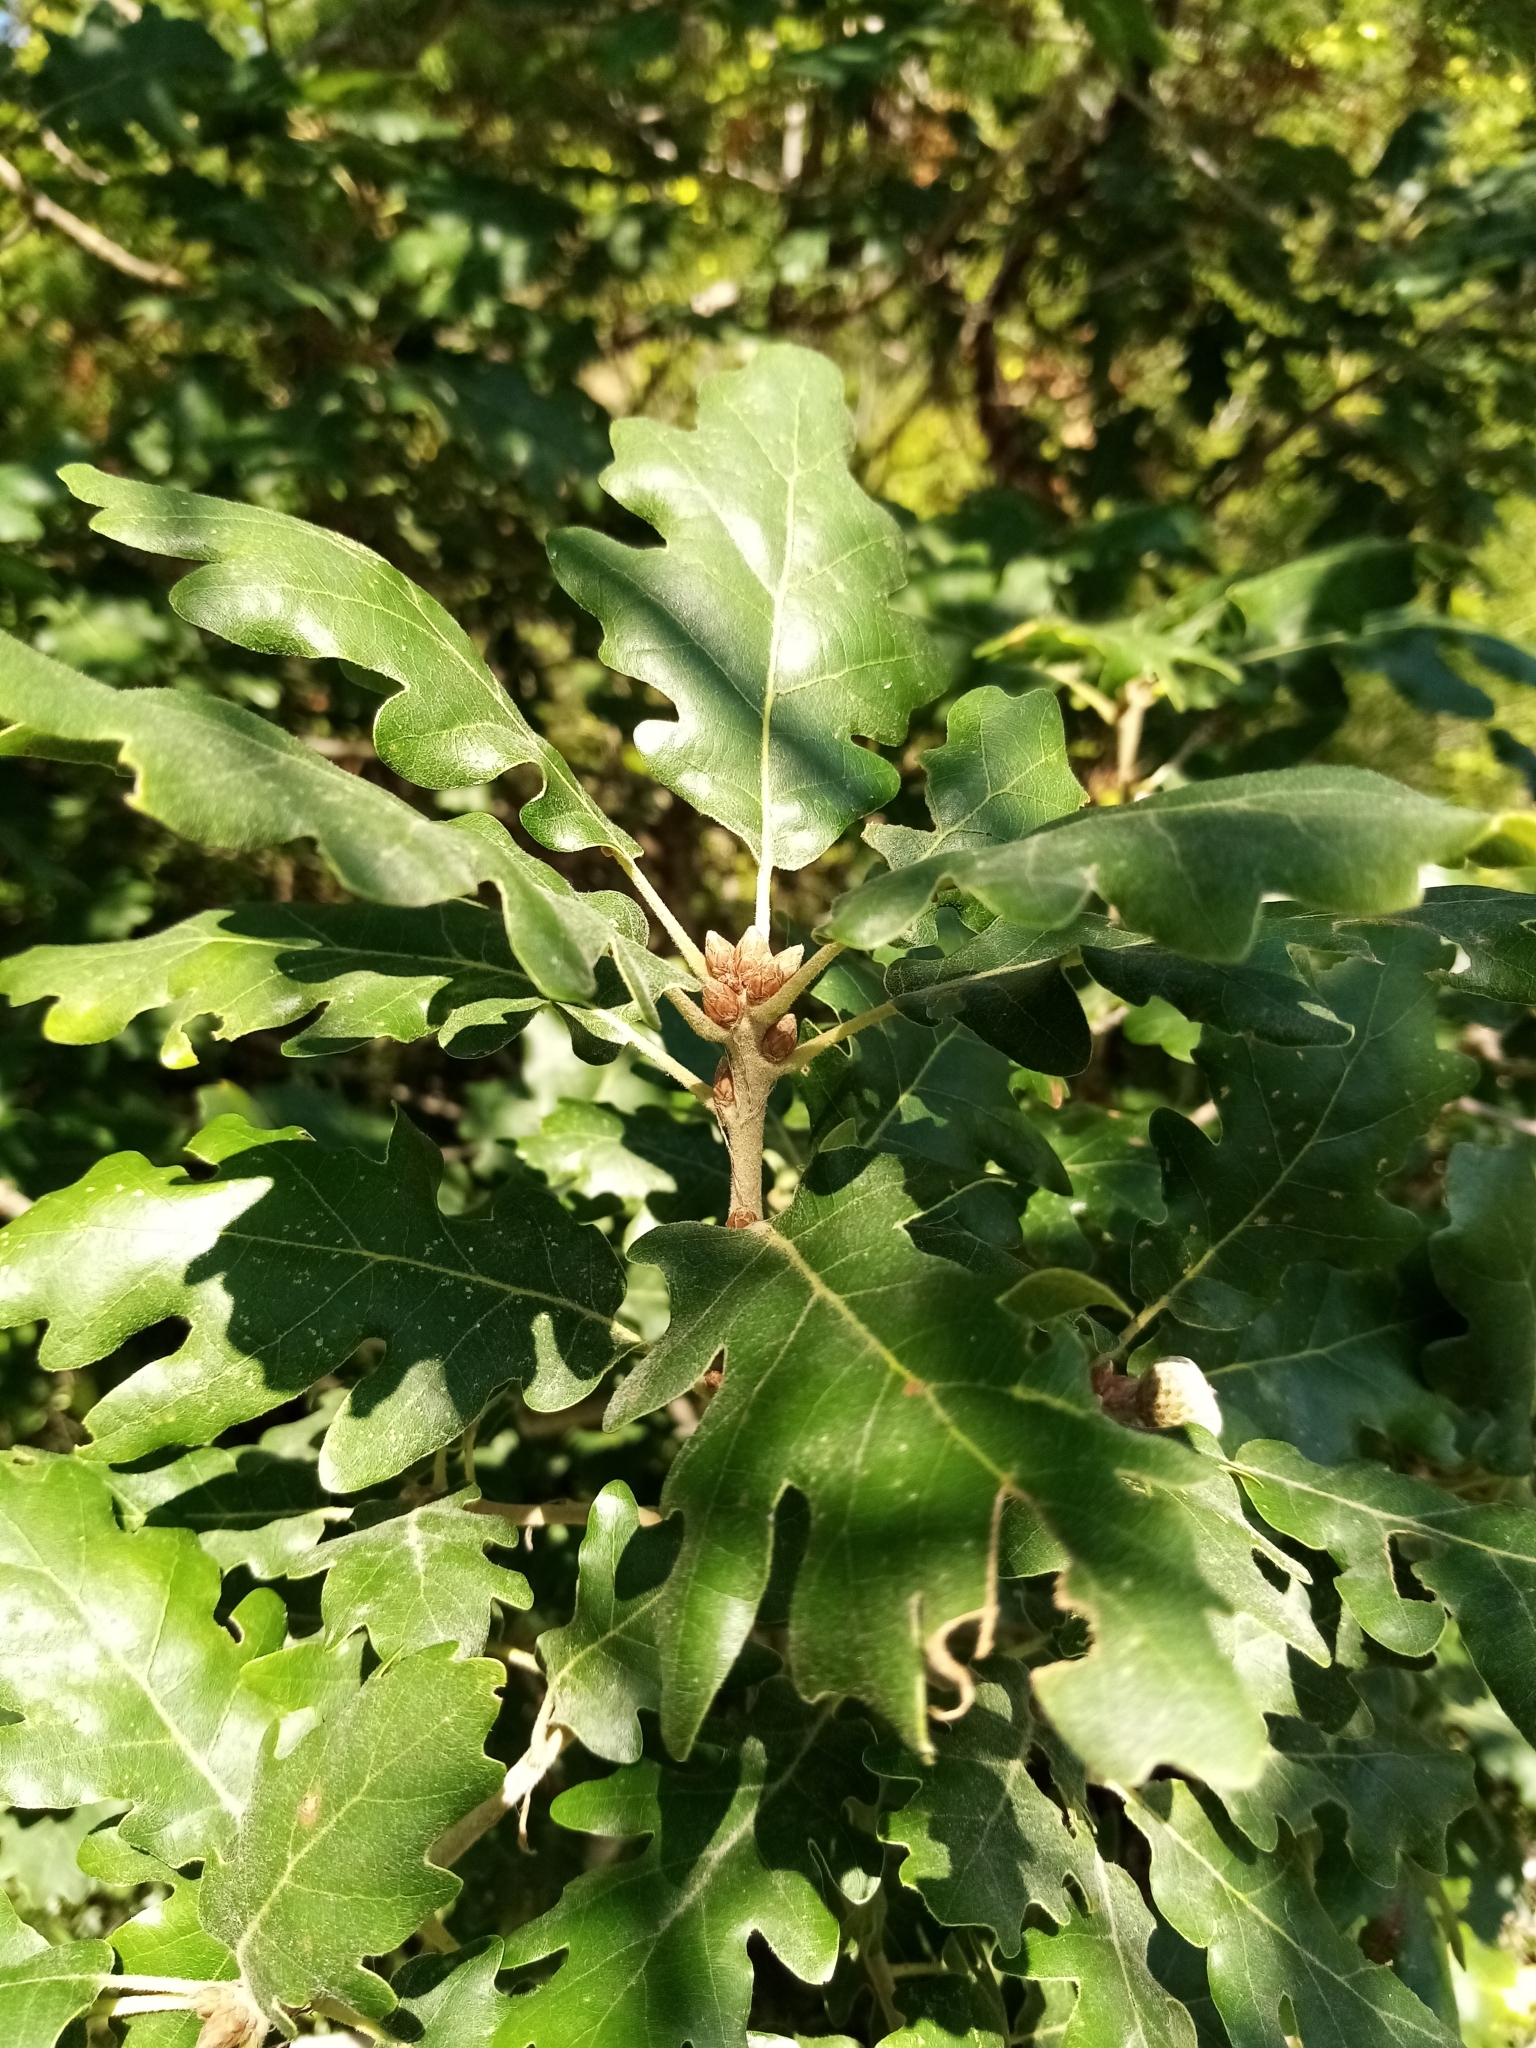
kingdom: Plantae
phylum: Tracheophyta
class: Magnoliopsida
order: Fagales
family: Fagaceae
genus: Quercus
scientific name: Quercus pubescens
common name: Downy oak
